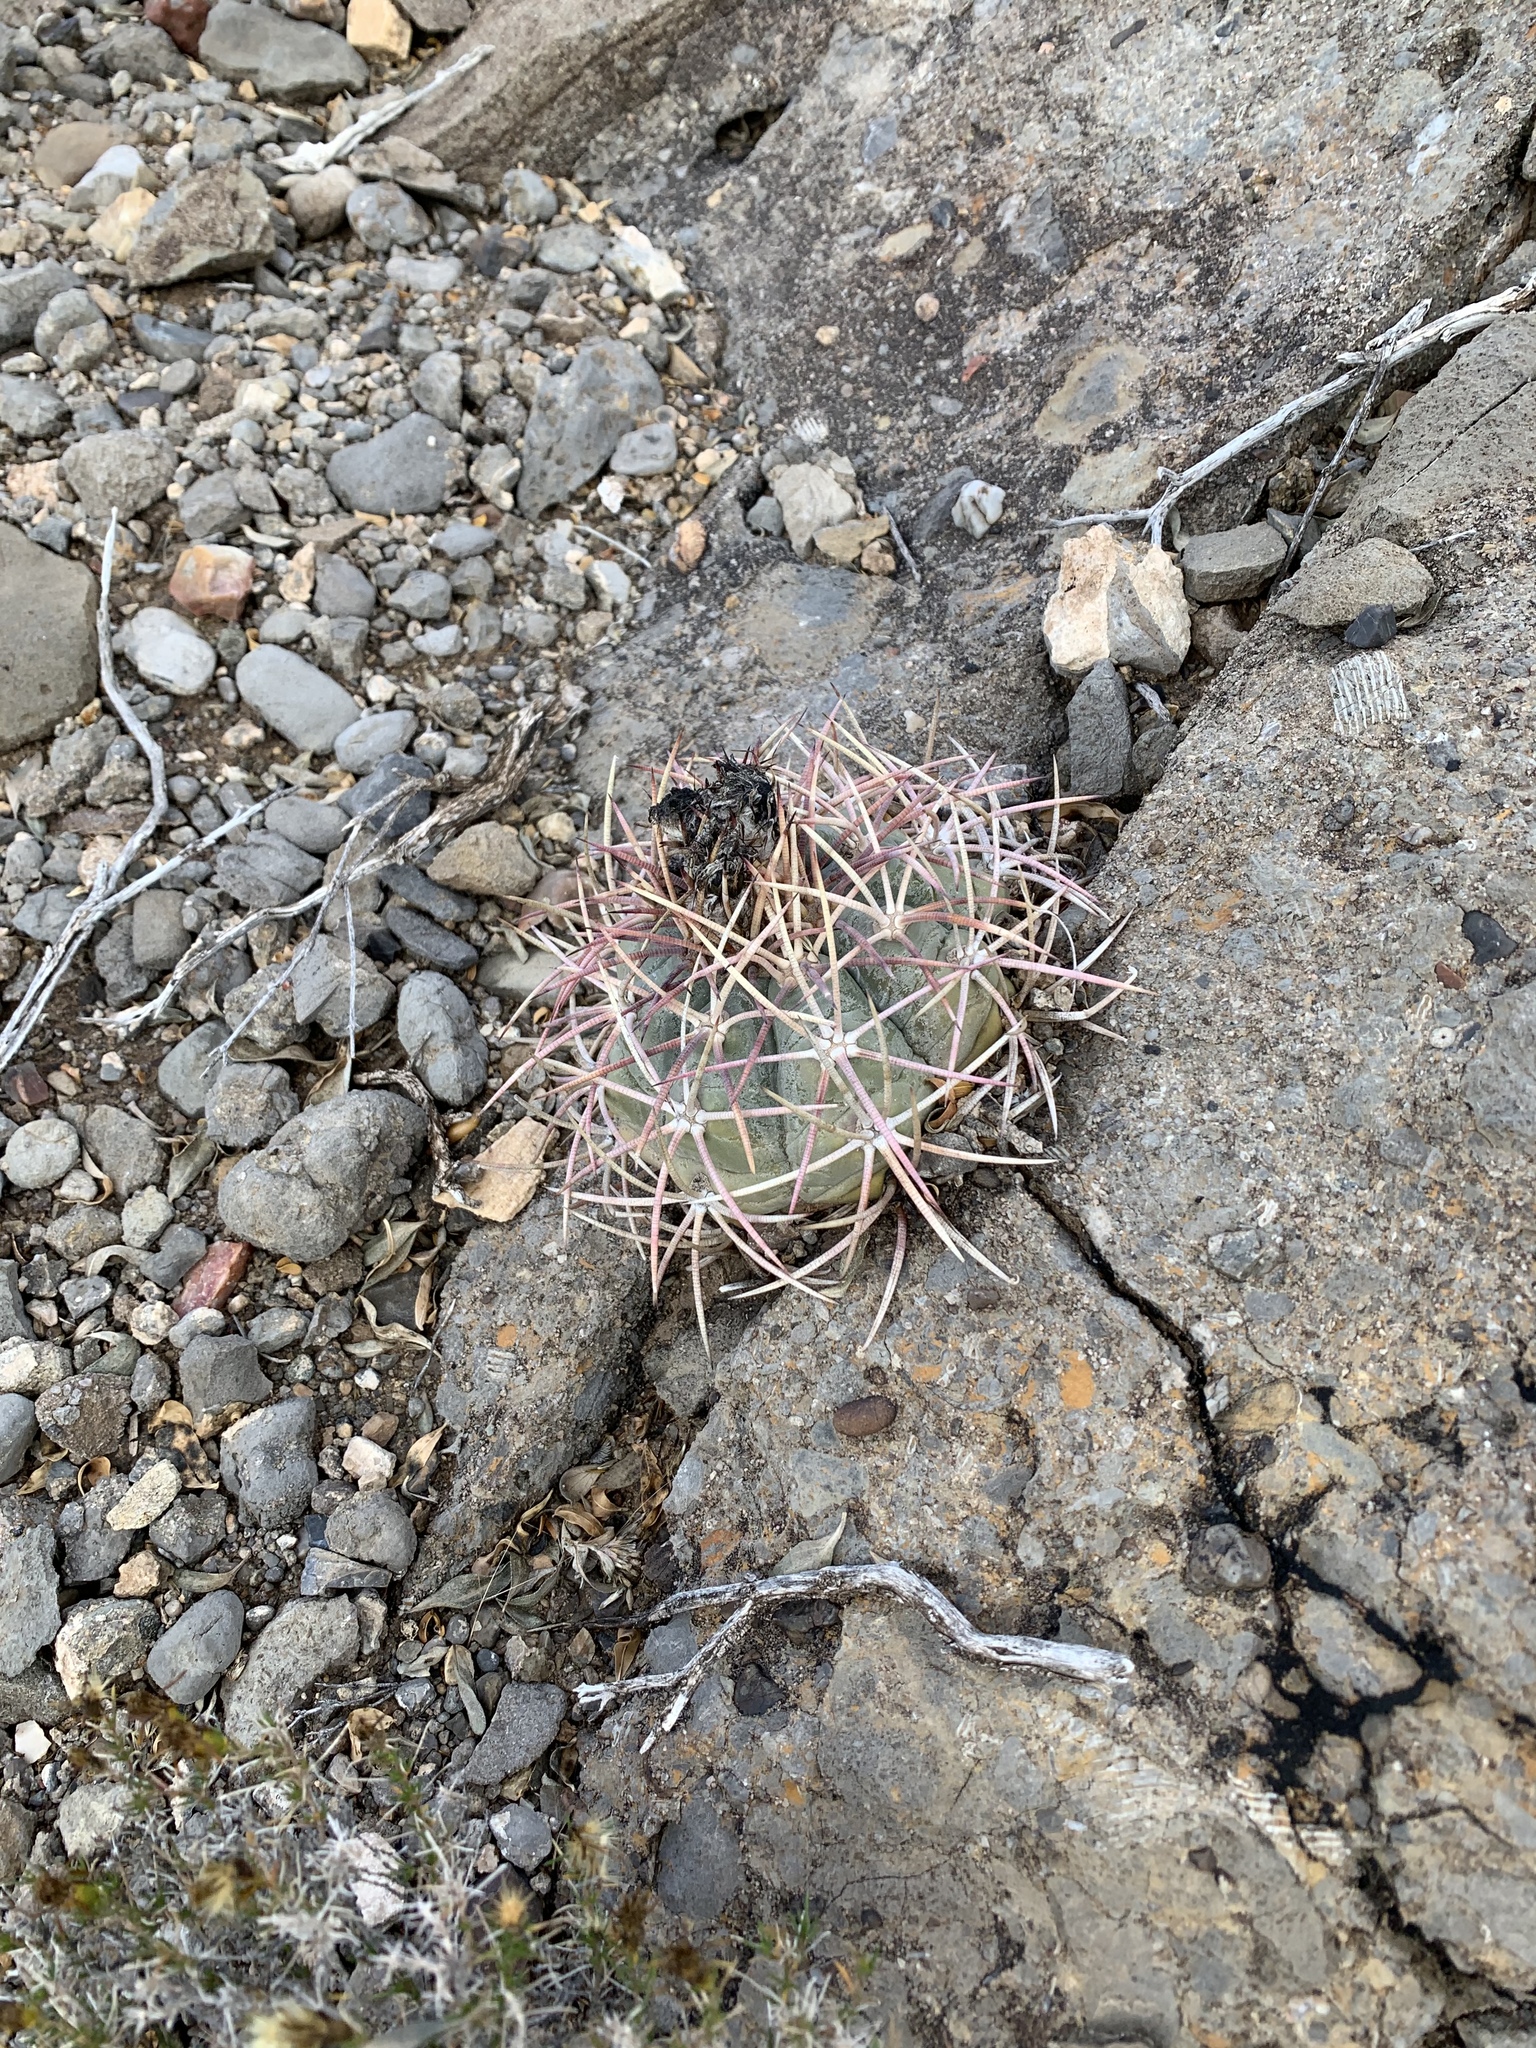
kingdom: Plantae
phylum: Tracheophyta
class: Magnoliopsida
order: Caryophyllales
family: Cactaceae
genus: Echinocactus
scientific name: Echinocactus horizonthalonius
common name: Devilshead
